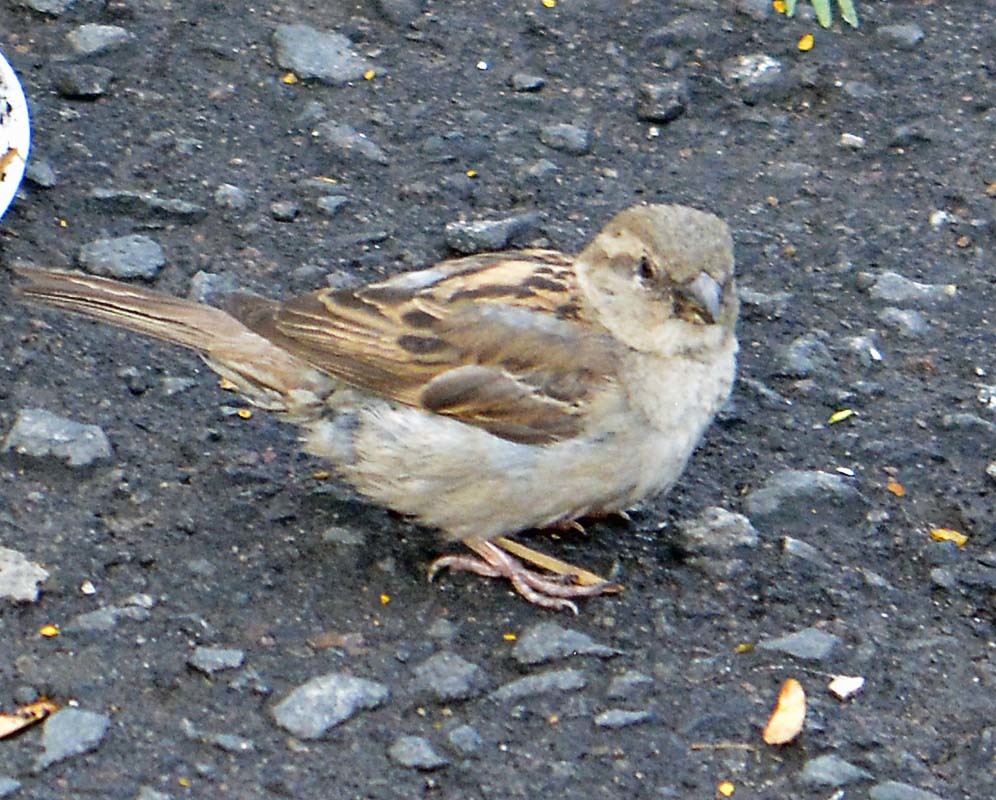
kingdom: Animalia
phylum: Chordata
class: Aves
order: Passeriformes
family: Passeridae
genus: Passer
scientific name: Passer domesticus
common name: House sparrow
